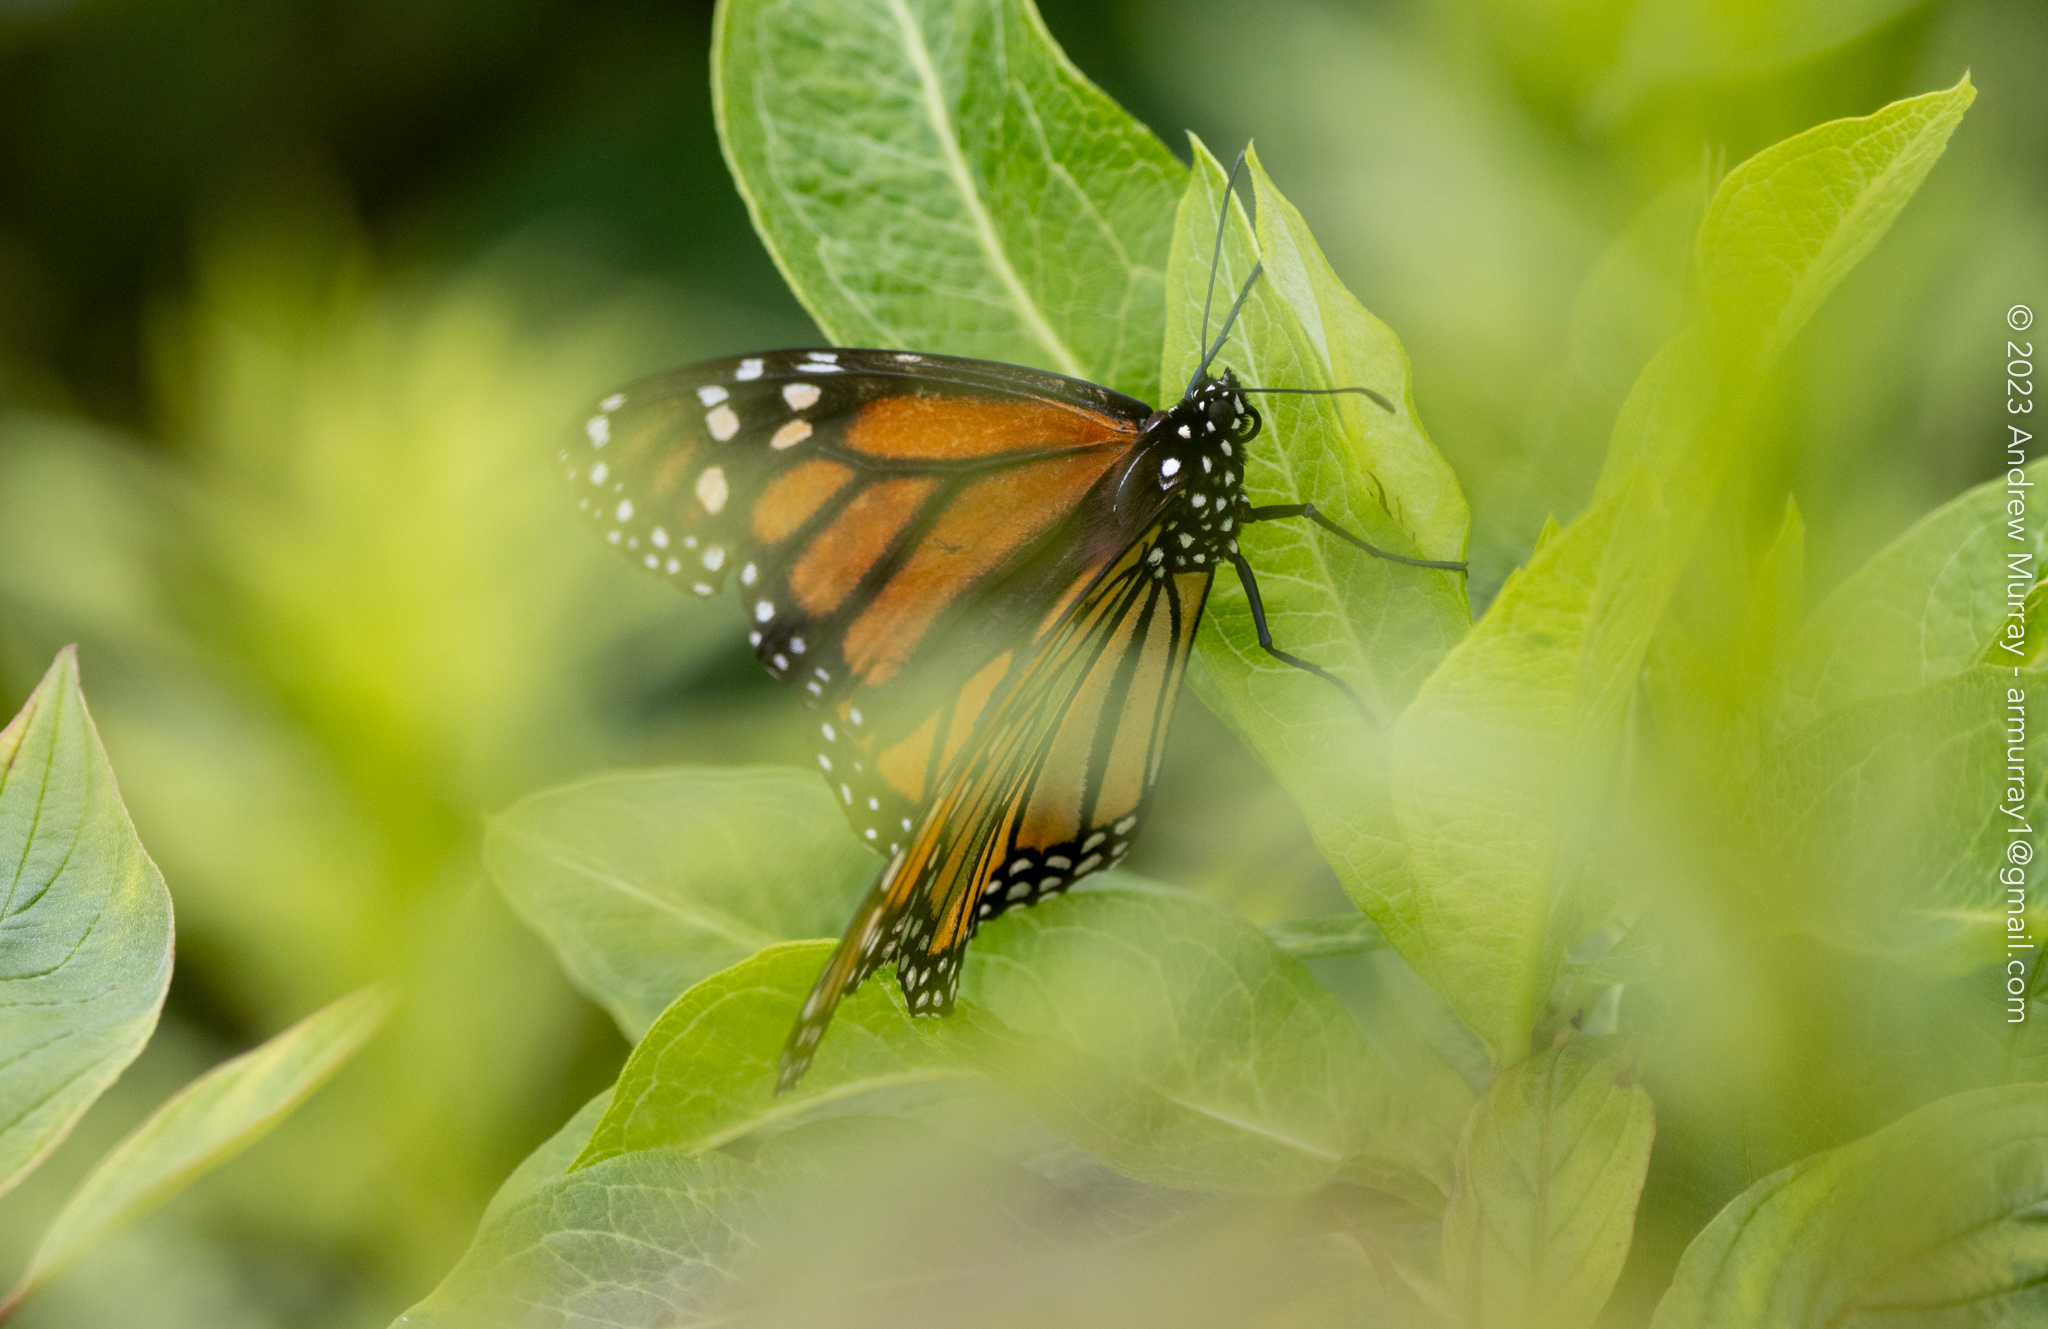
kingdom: Animalia
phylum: Arthropoda
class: Insecta
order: Lepidoptera
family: Nymphalidae
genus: Danaus
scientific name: Danaus plexippus
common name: Monarch
